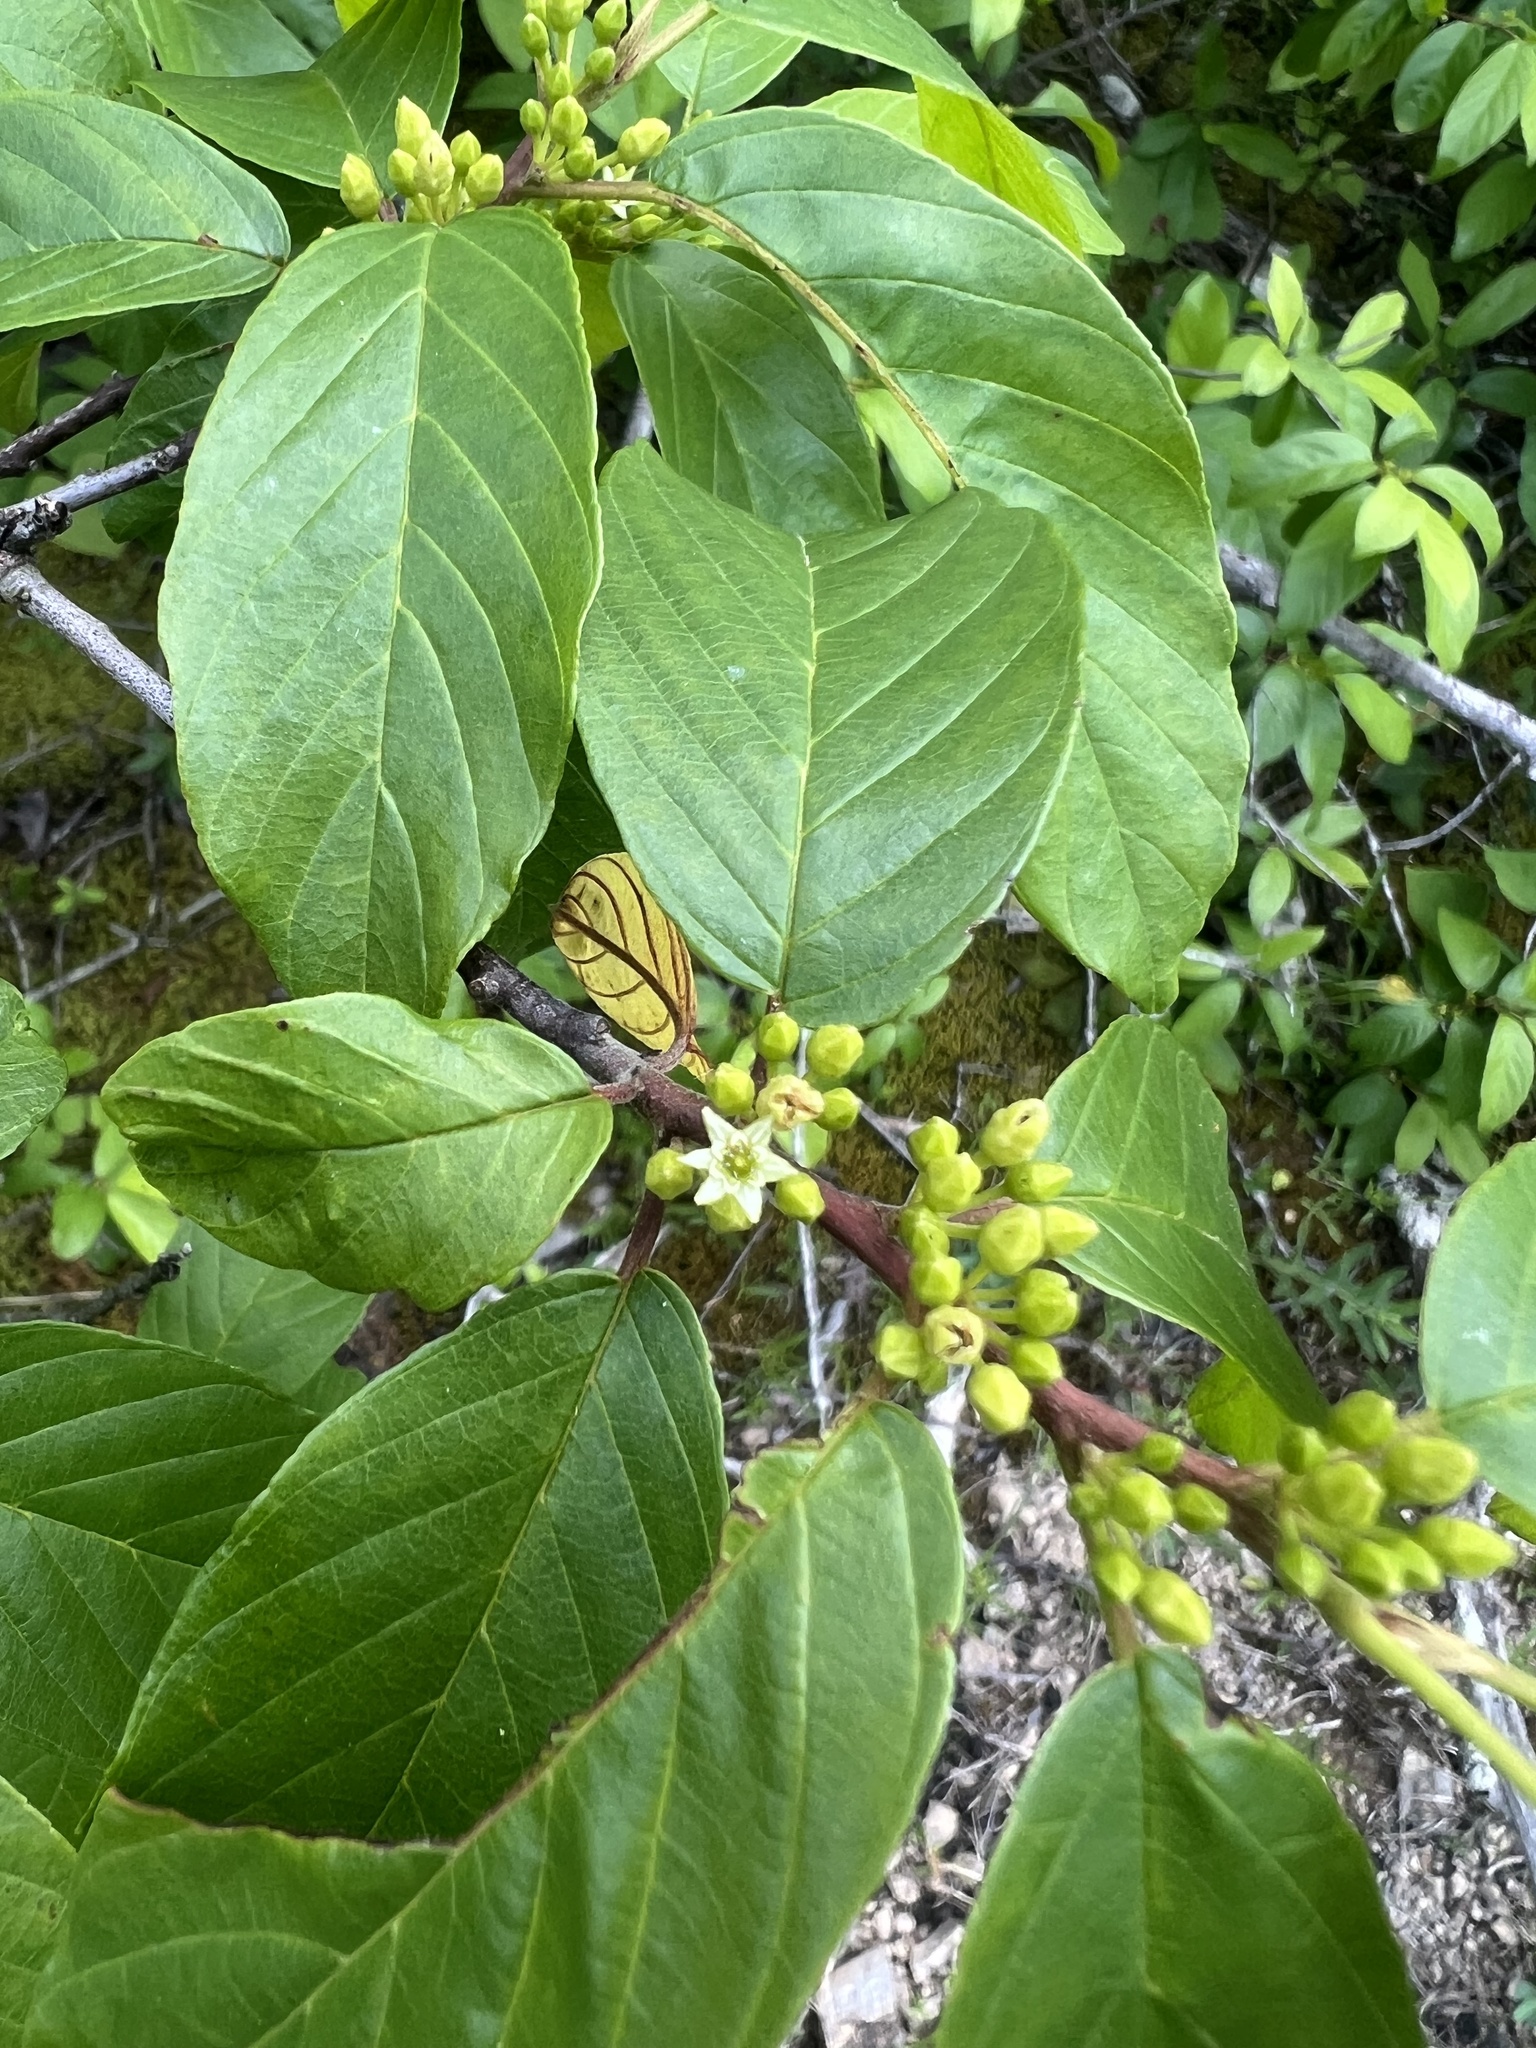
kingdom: Plantae
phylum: Tracheophyta
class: Magnoliopsida
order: Rosales
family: Rhamnaceae
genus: Frangula
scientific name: Frangula caroliniana
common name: Carolina buckthorn
